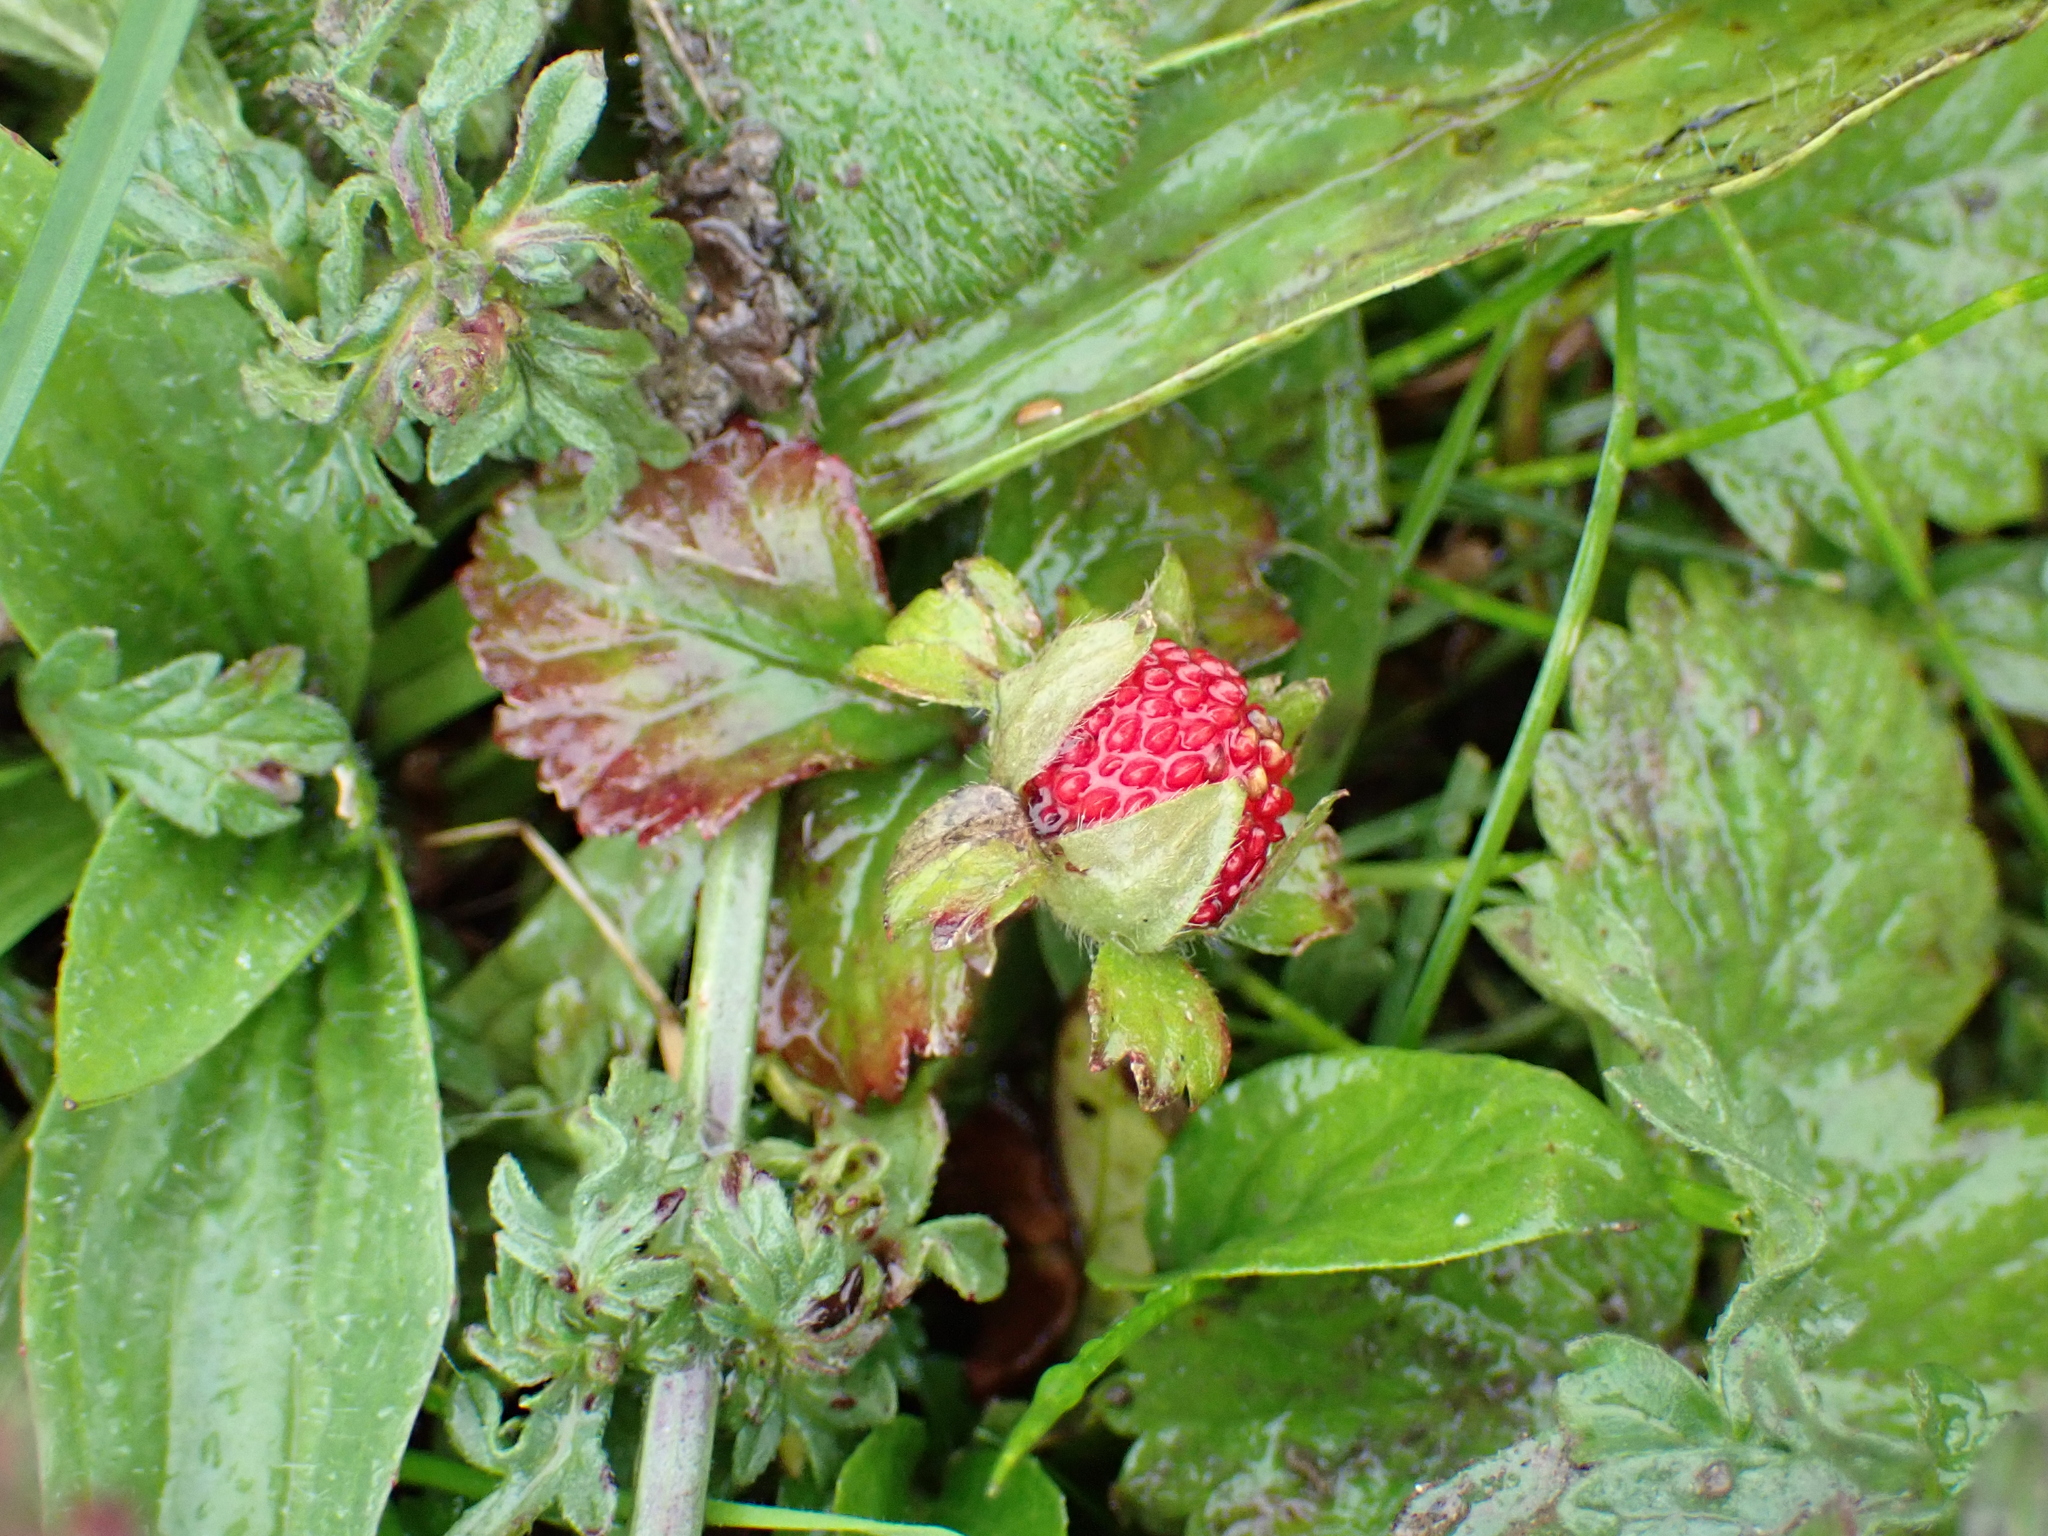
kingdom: Plantae
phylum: Tracheophyta
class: Magnoliopsida
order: Rosales
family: Rosaceae
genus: Potentilla
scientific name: Potentilla indica
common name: Yellow-flowered strawberry
